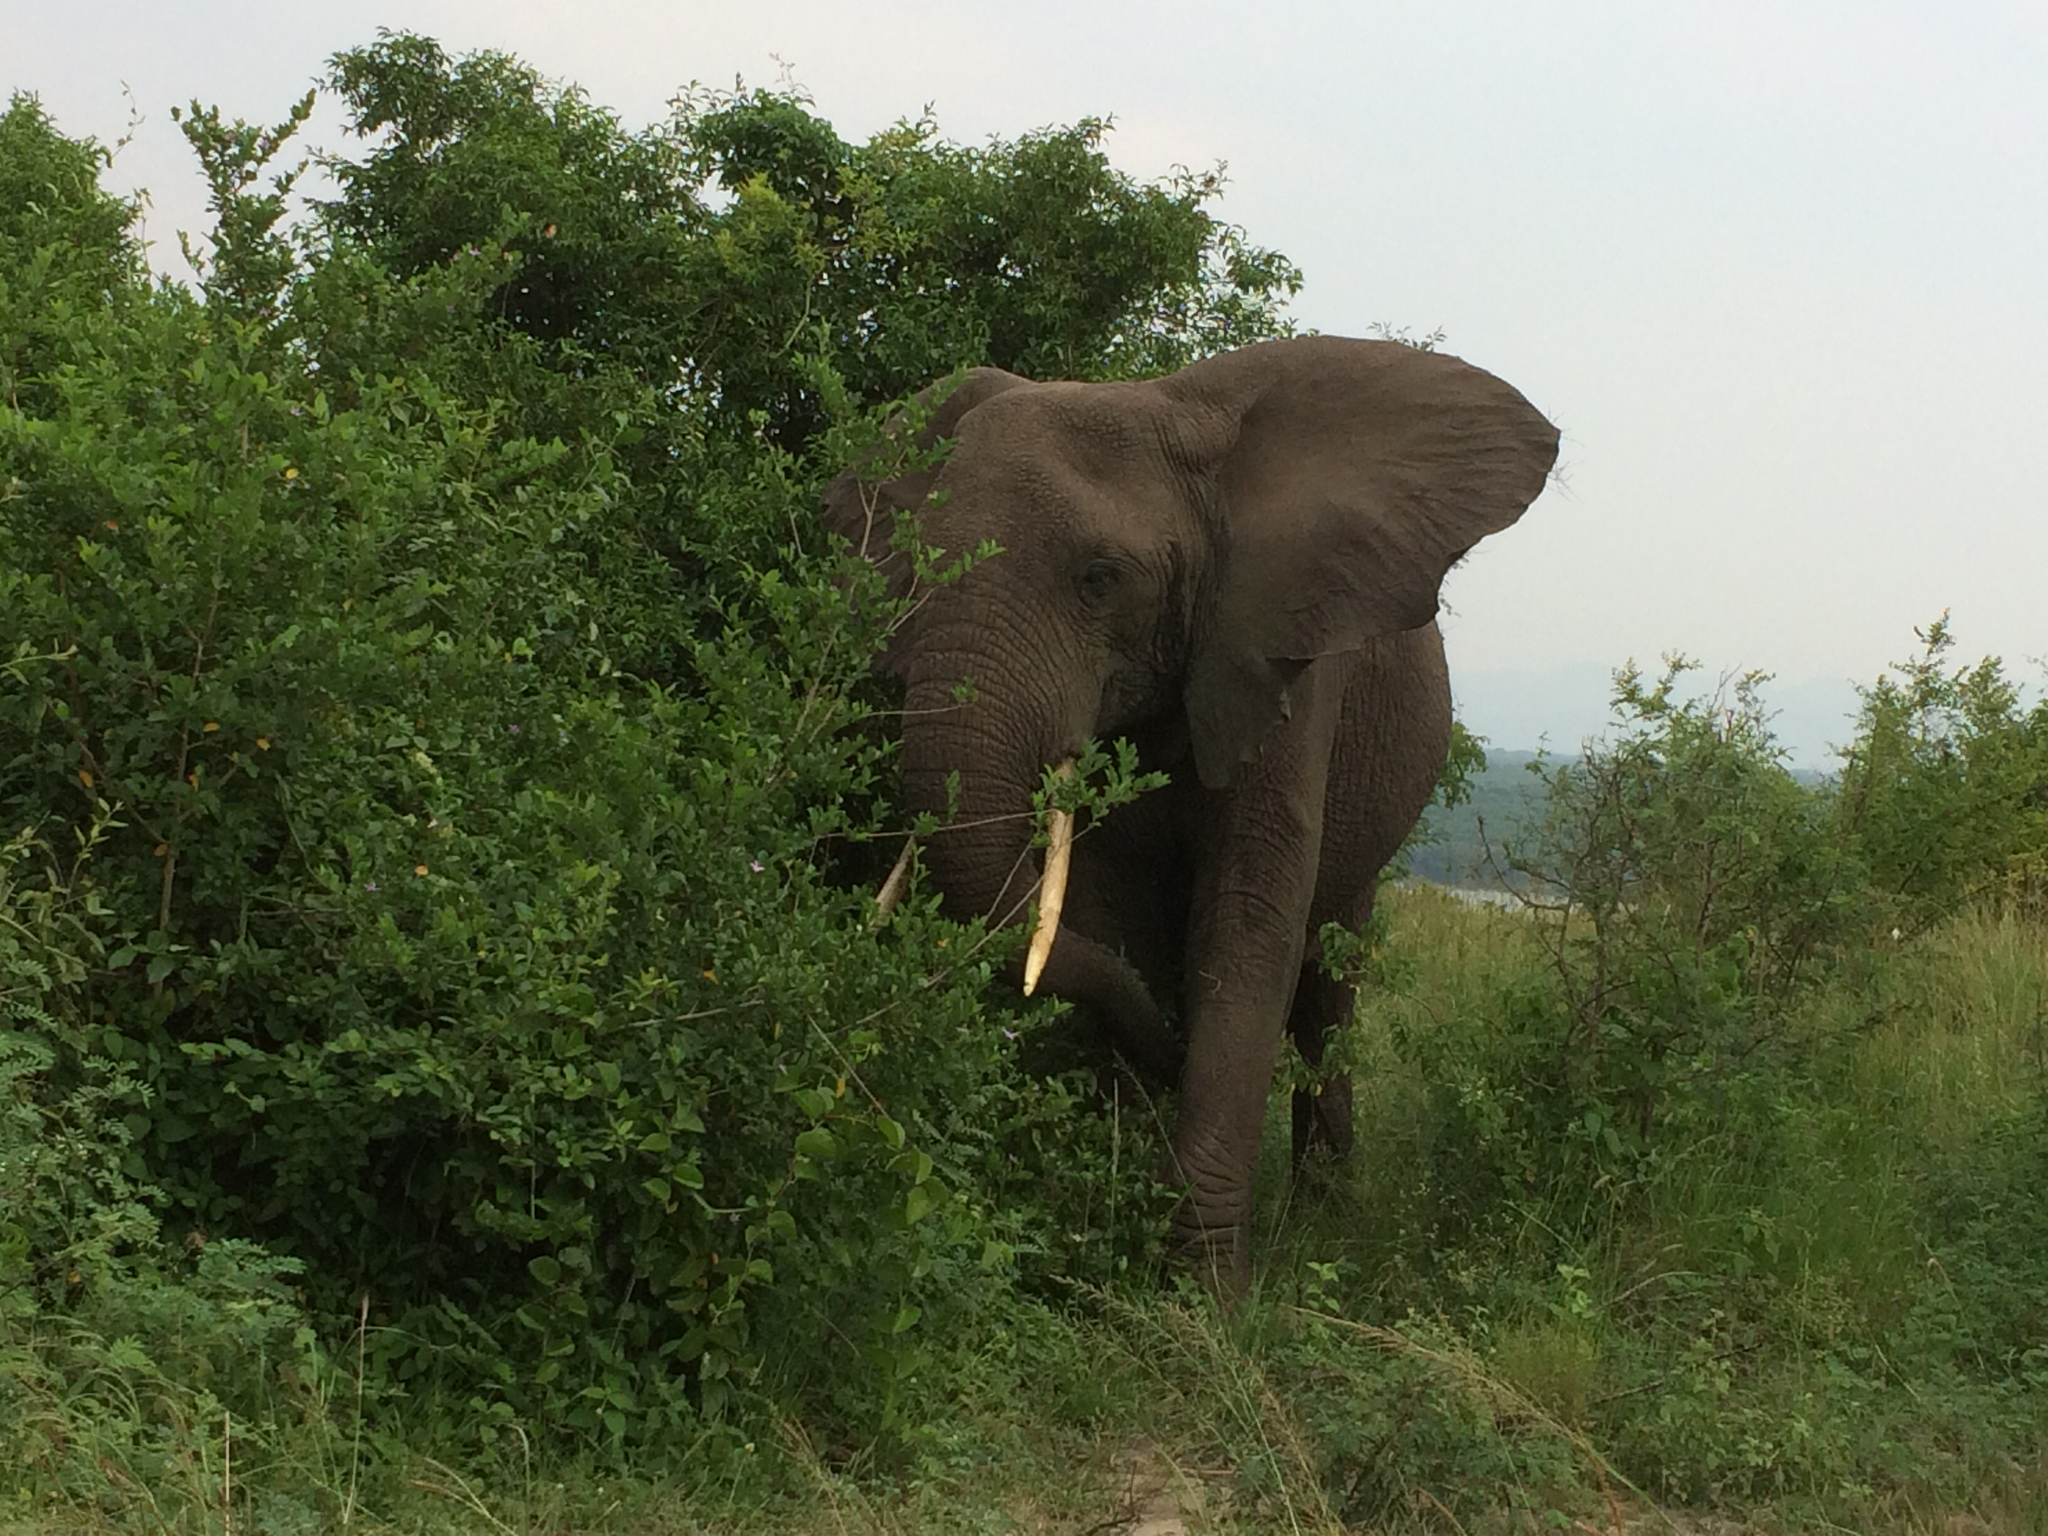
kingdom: Animalia
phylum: Chordata
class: Mammalia
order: Proboscidea
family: Elephantidae
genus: Loxodonta
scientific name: Loxodonta africana
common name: African elephant
